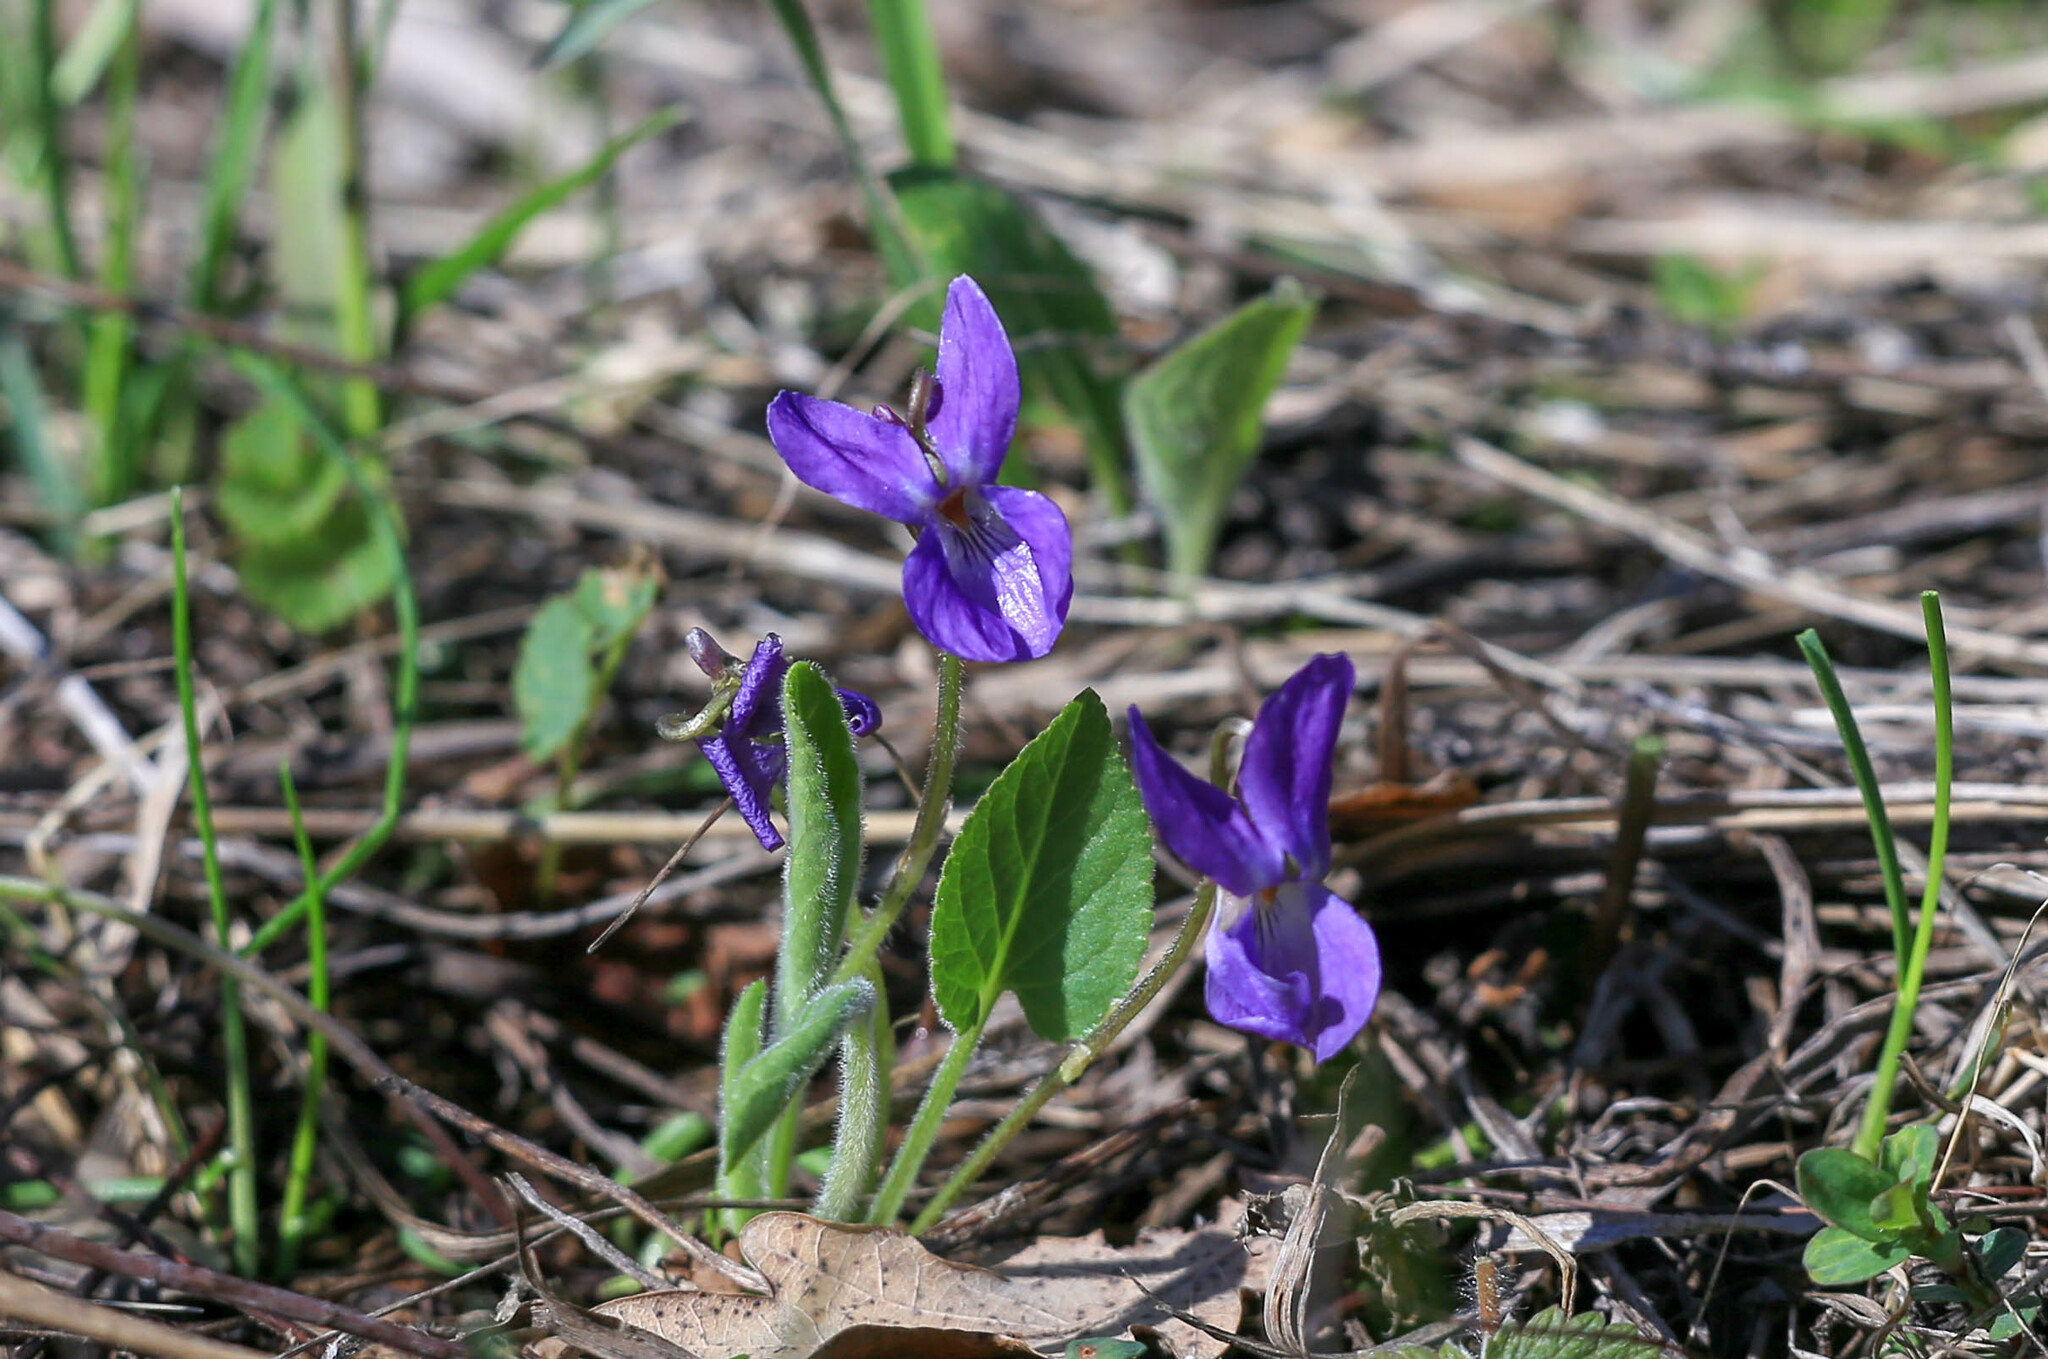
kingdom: Plantae
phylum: Tracheophyta
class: Magnoliopsida
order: Malpighiales
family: Violaceae
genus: Viola
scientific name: Viola hirta
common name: Hairy violet
